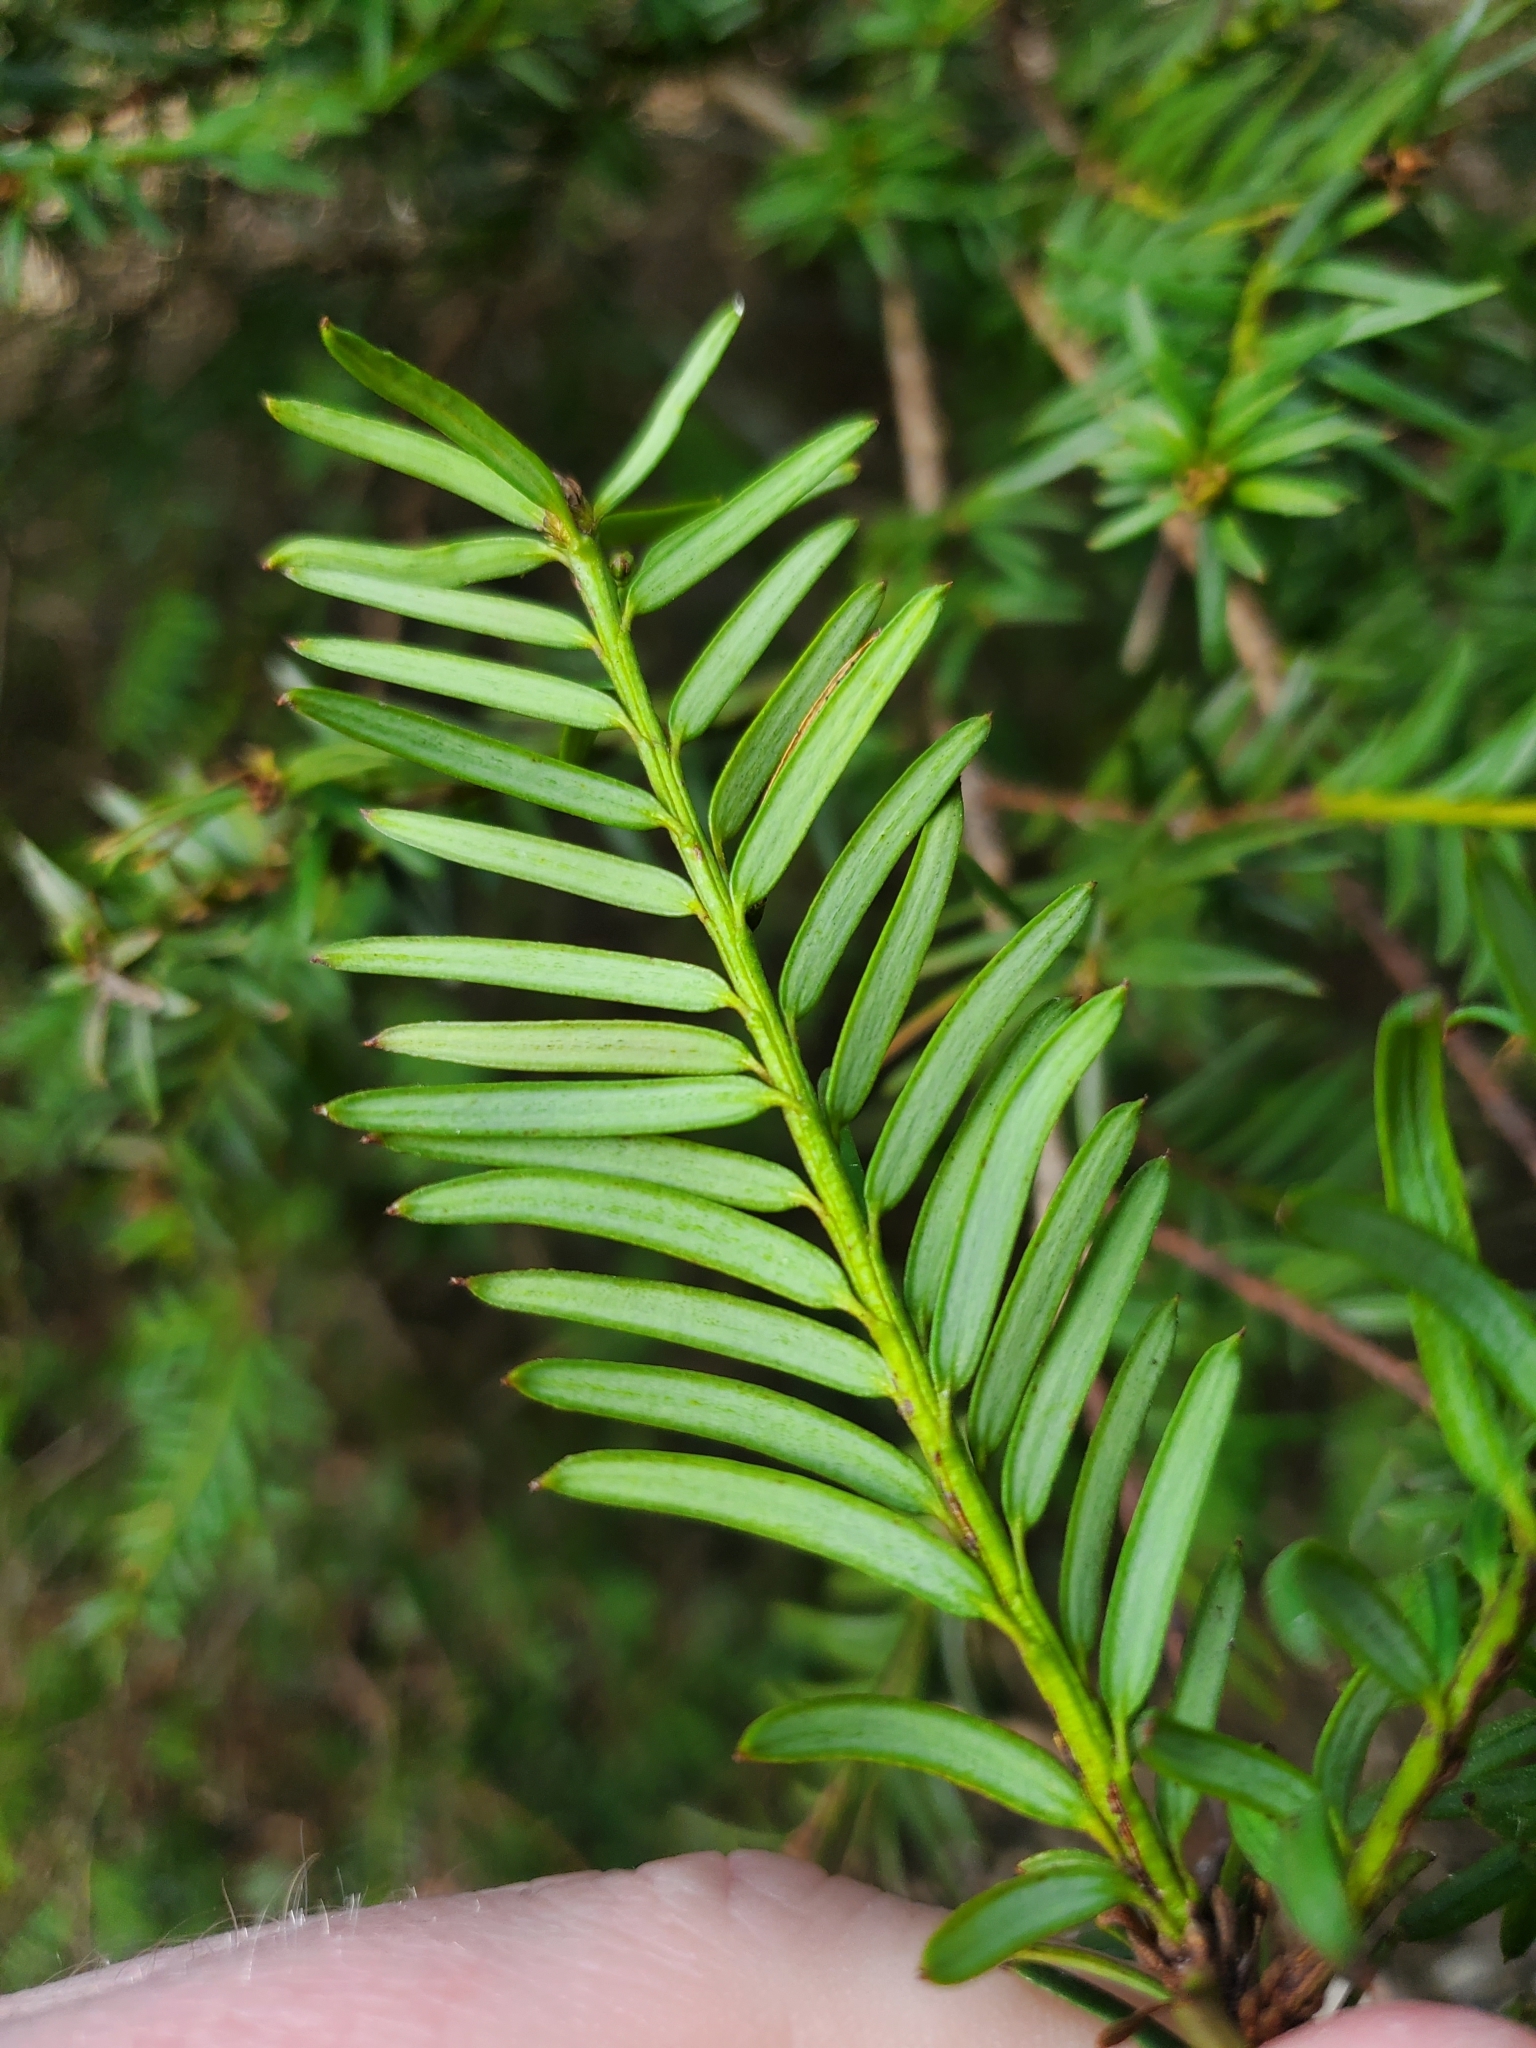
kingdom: Plantae
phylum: Tracheophyta
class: Pinopsida
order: Pinales
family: Taxaceae
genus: Taxus
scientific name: Taxus brevifolia
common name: Pacific yew
